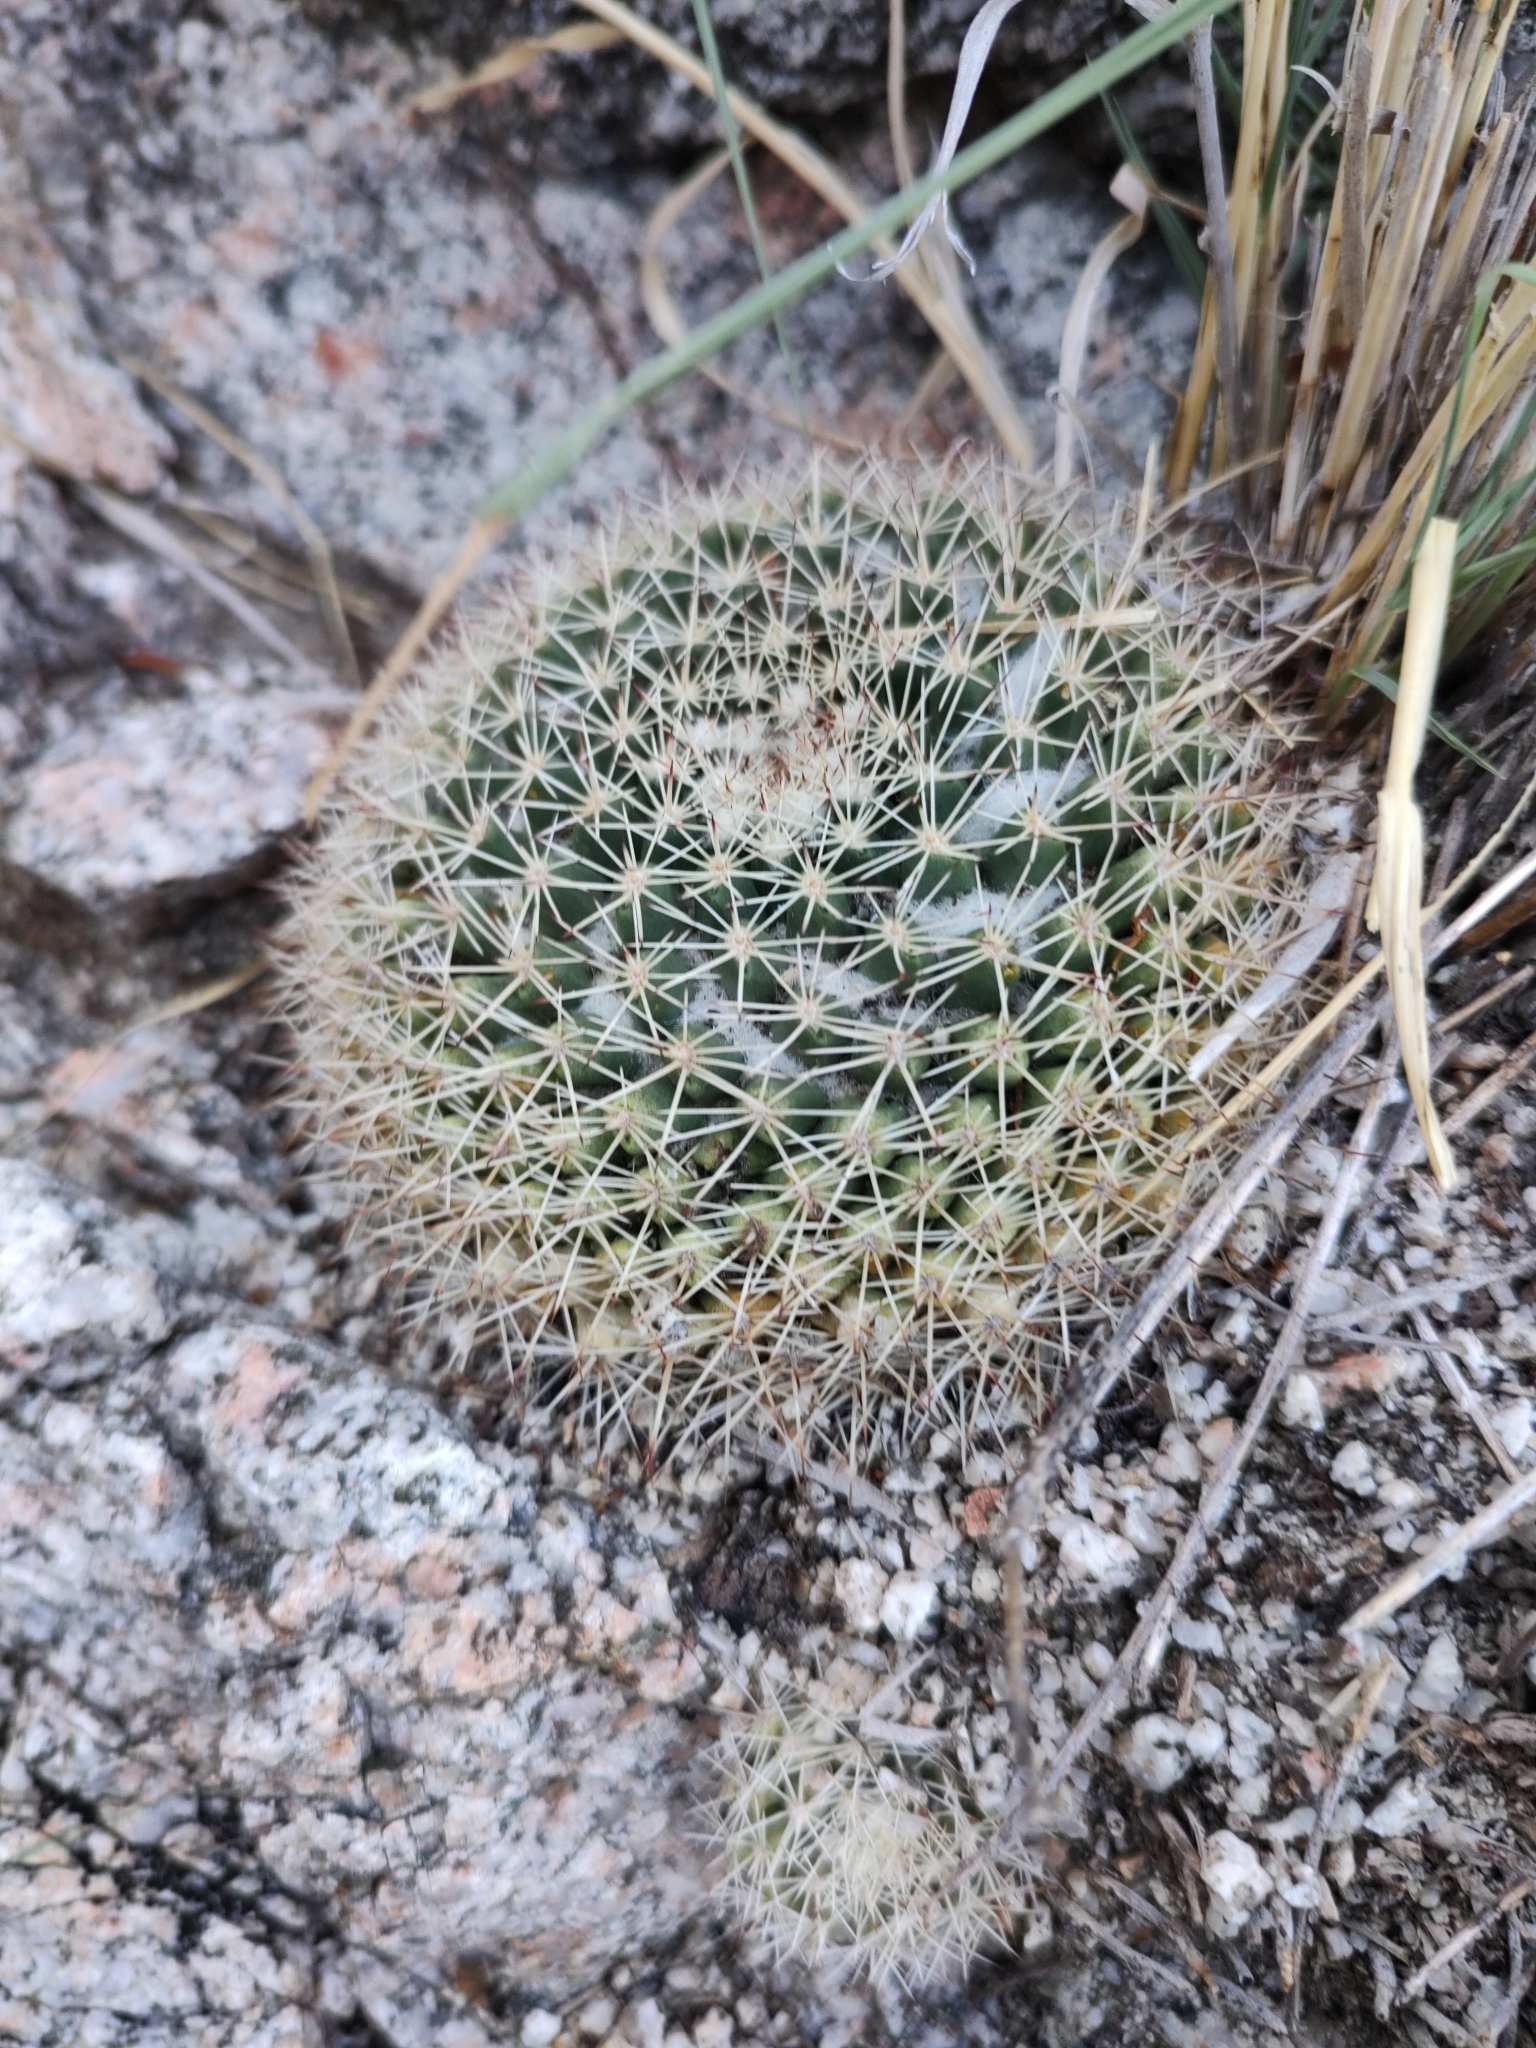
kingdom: Plantae
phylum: Tracheophyta
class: Magnoliopsida
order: Caryophyllales
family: Cactaceae
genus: Mammillaria
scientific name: Mammillaria petrophila
